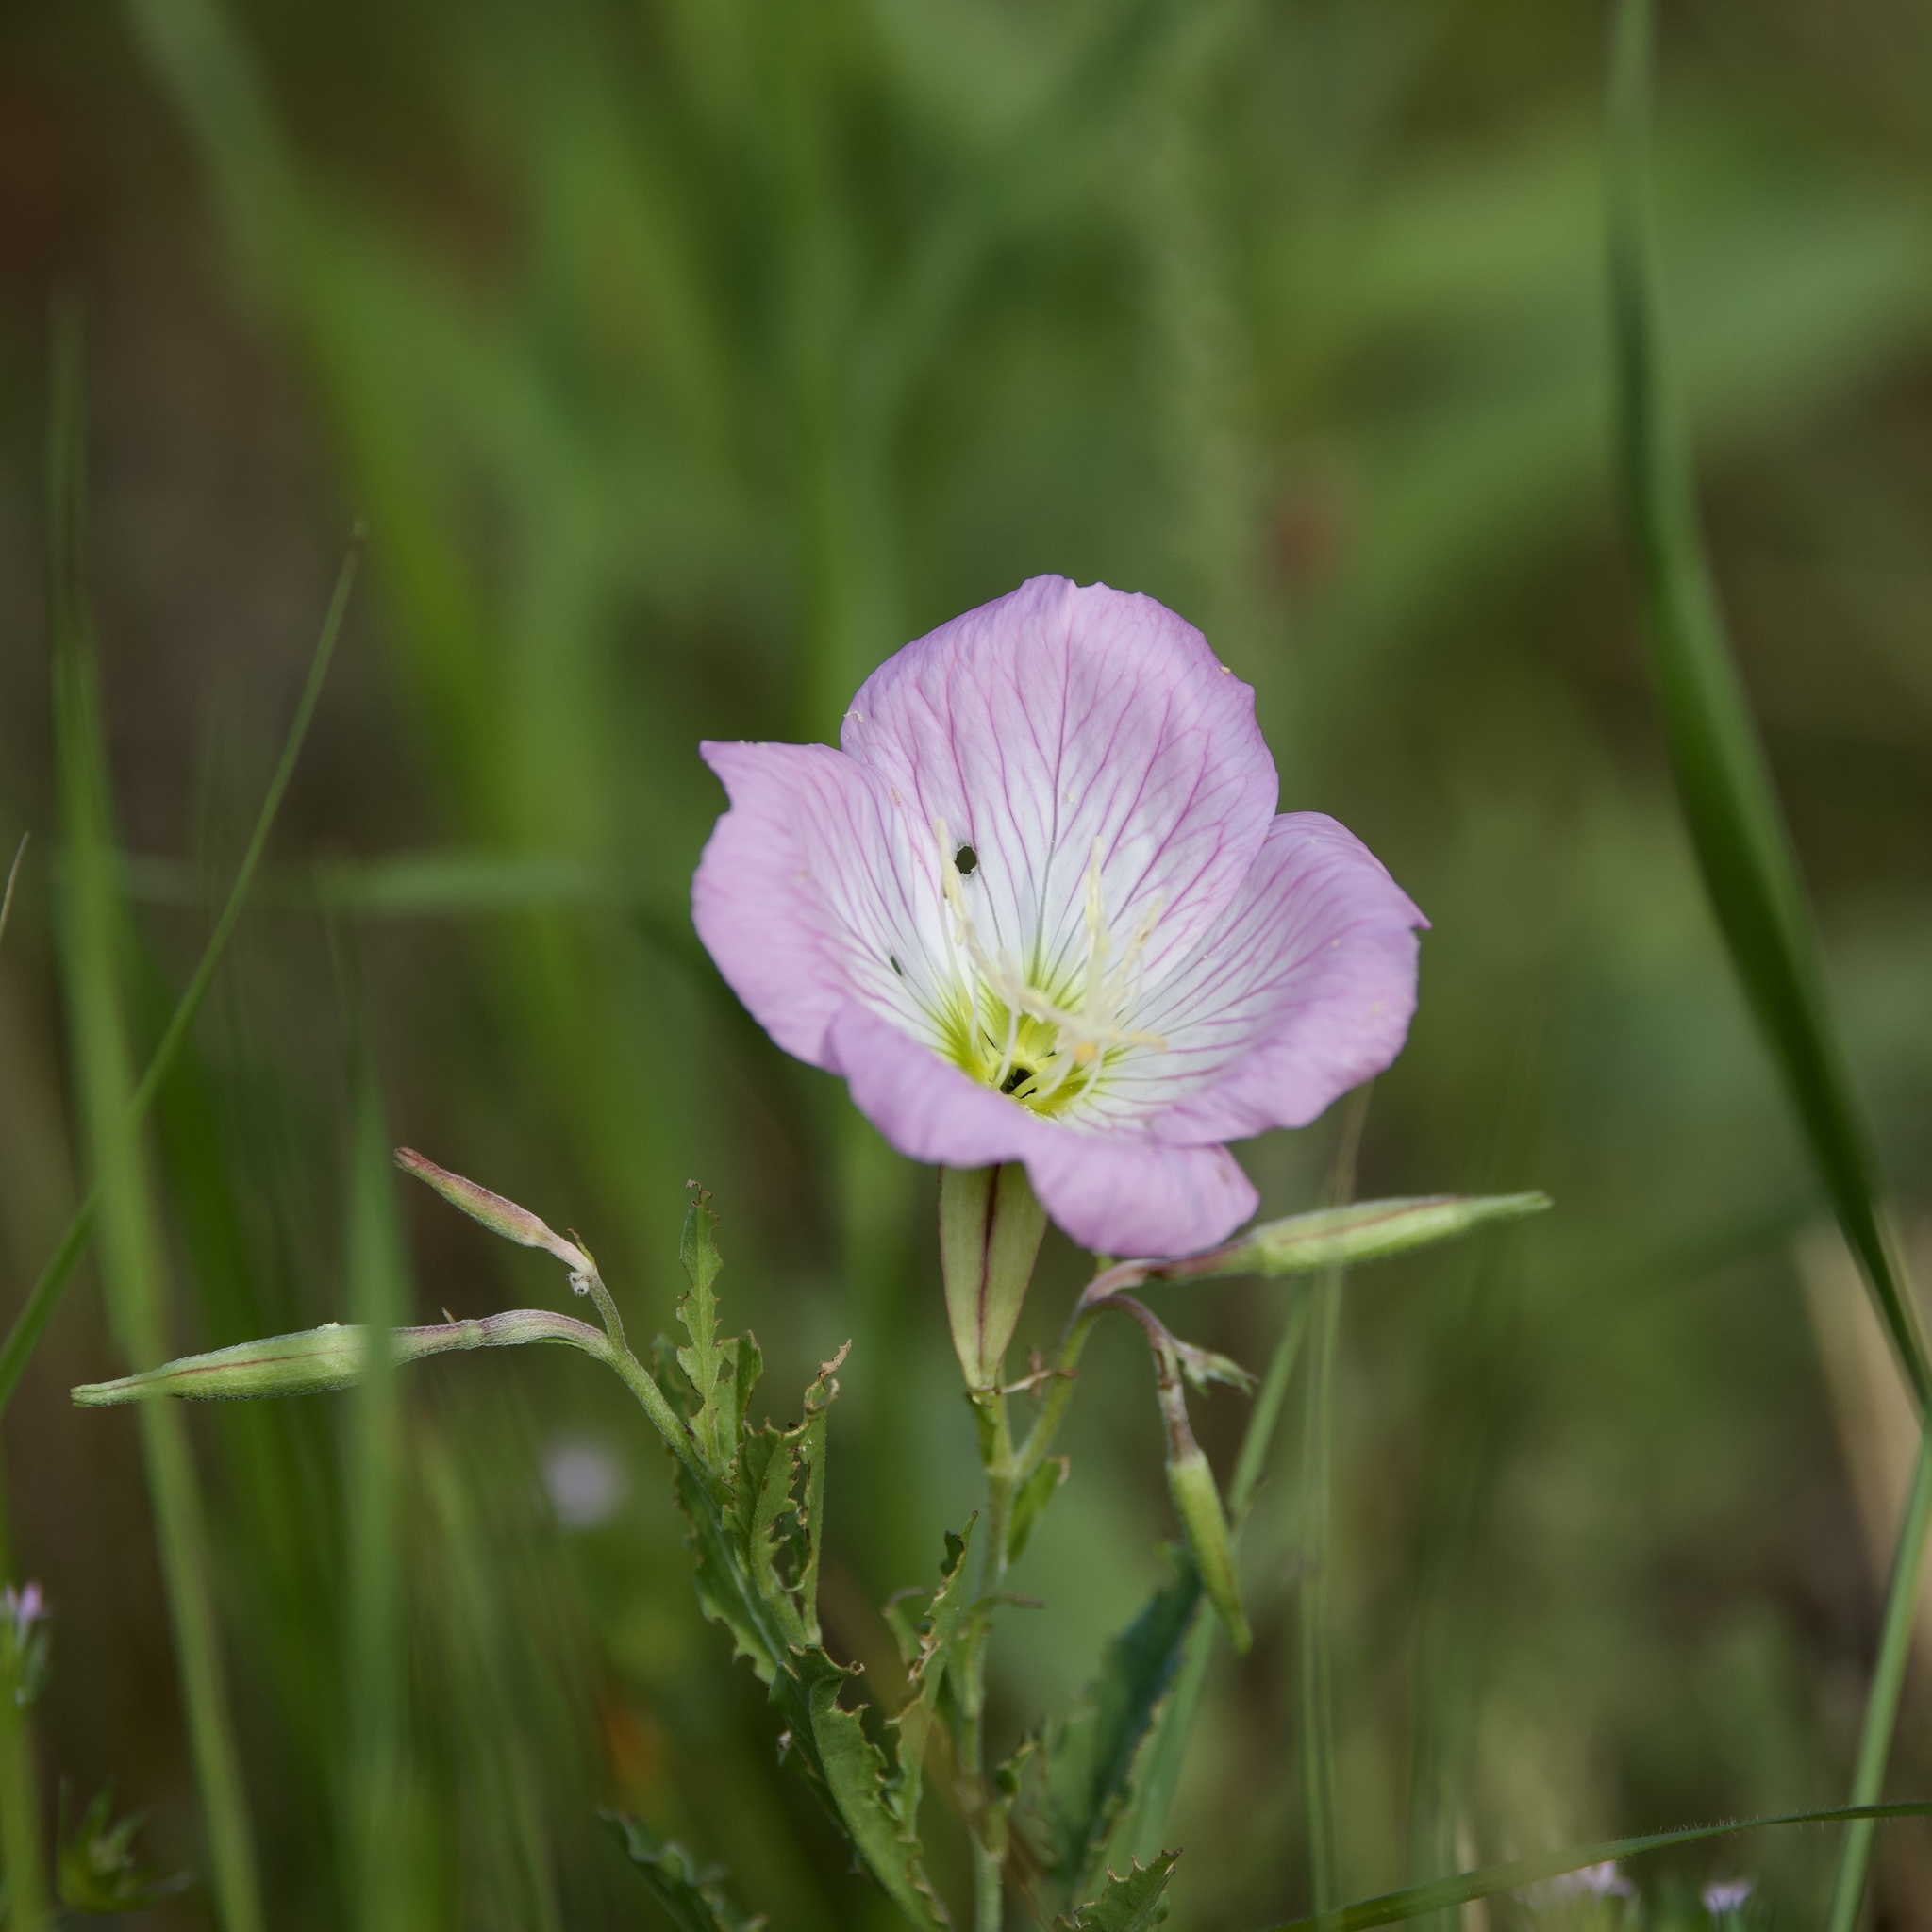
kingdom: Plantae
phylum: Tracheophyta
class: Magnoliopsida
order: Myrtales
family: Onagraceae
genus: Oenothera
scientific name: Oenothera speciosa
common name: White evening-primrose
